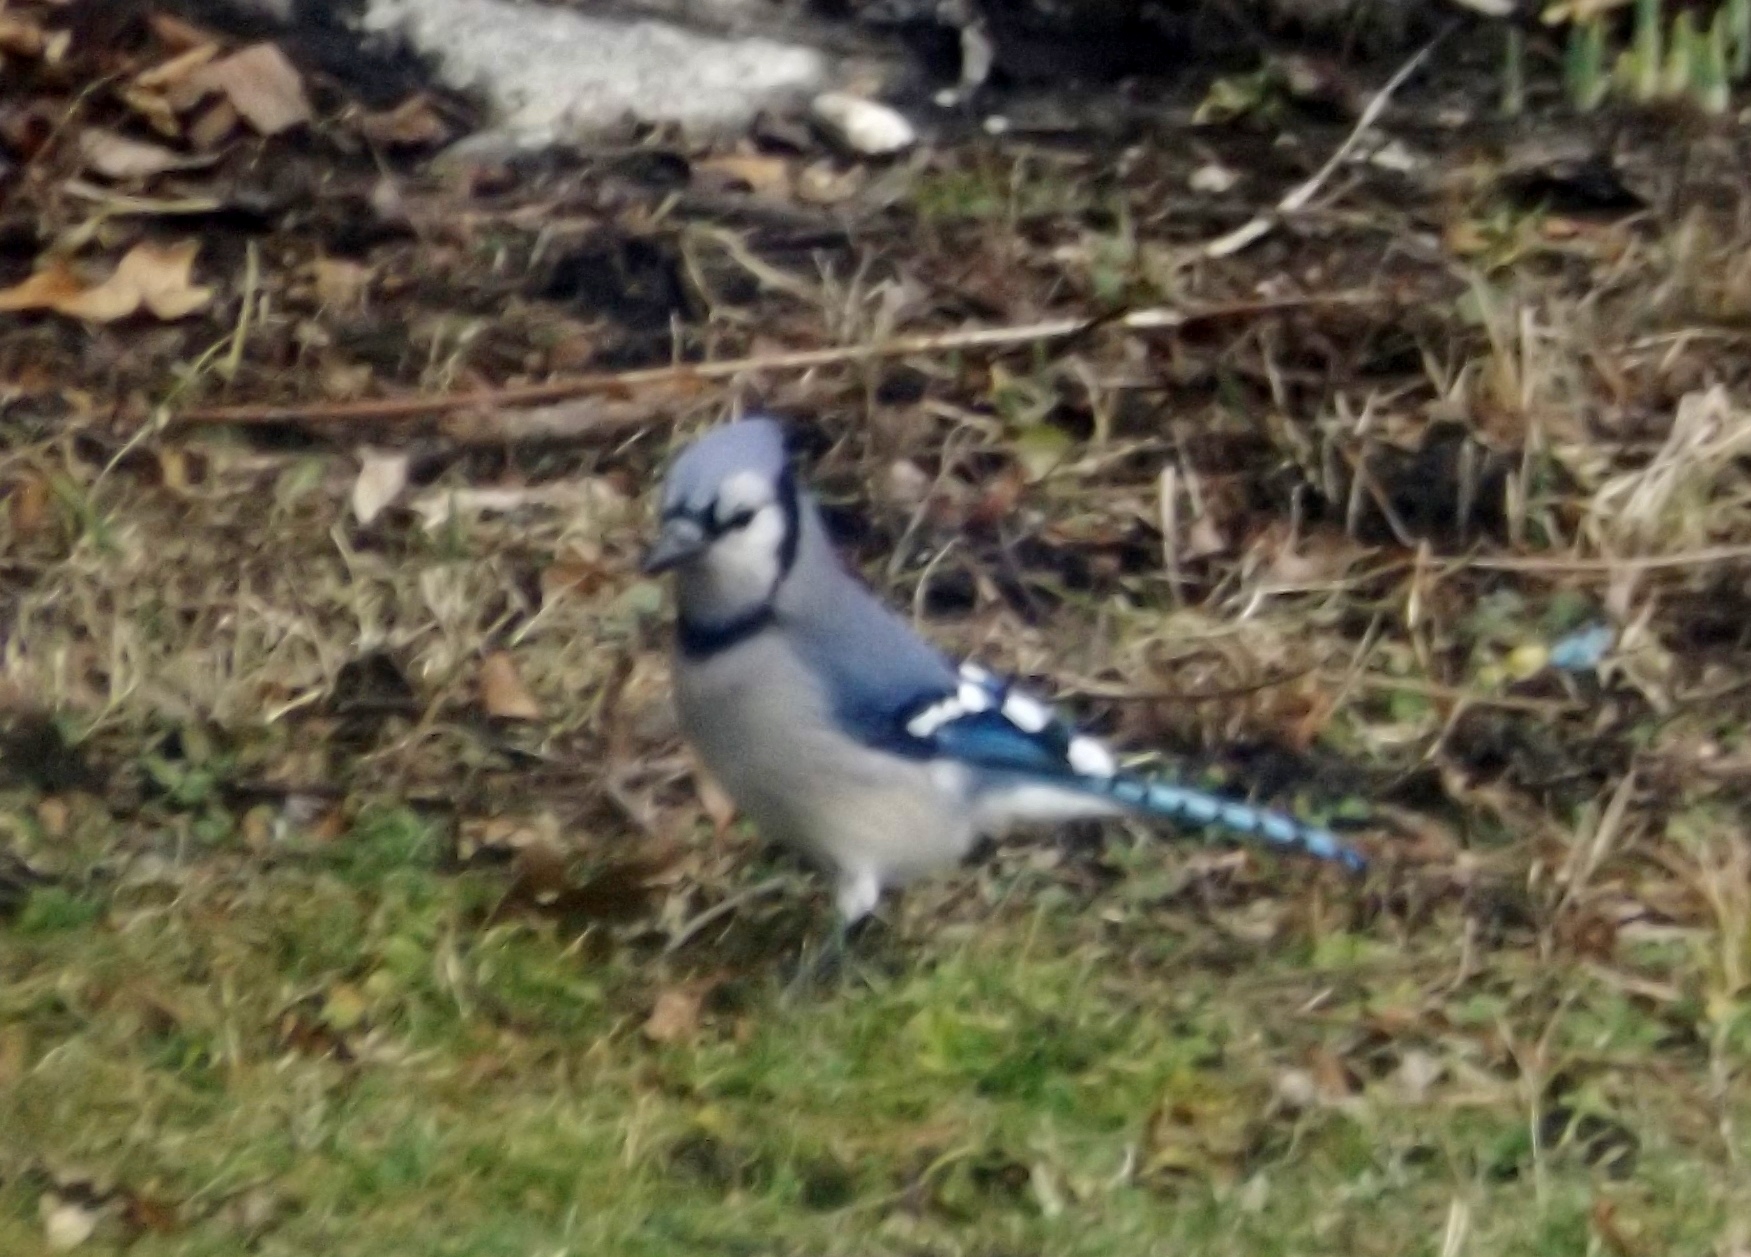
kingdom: Animalia
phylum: Chordata
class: Aves
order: Passeriformes
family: Corvidae
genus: Cyanocitta
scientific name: Cyanocitta cristata
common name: Blue jay
